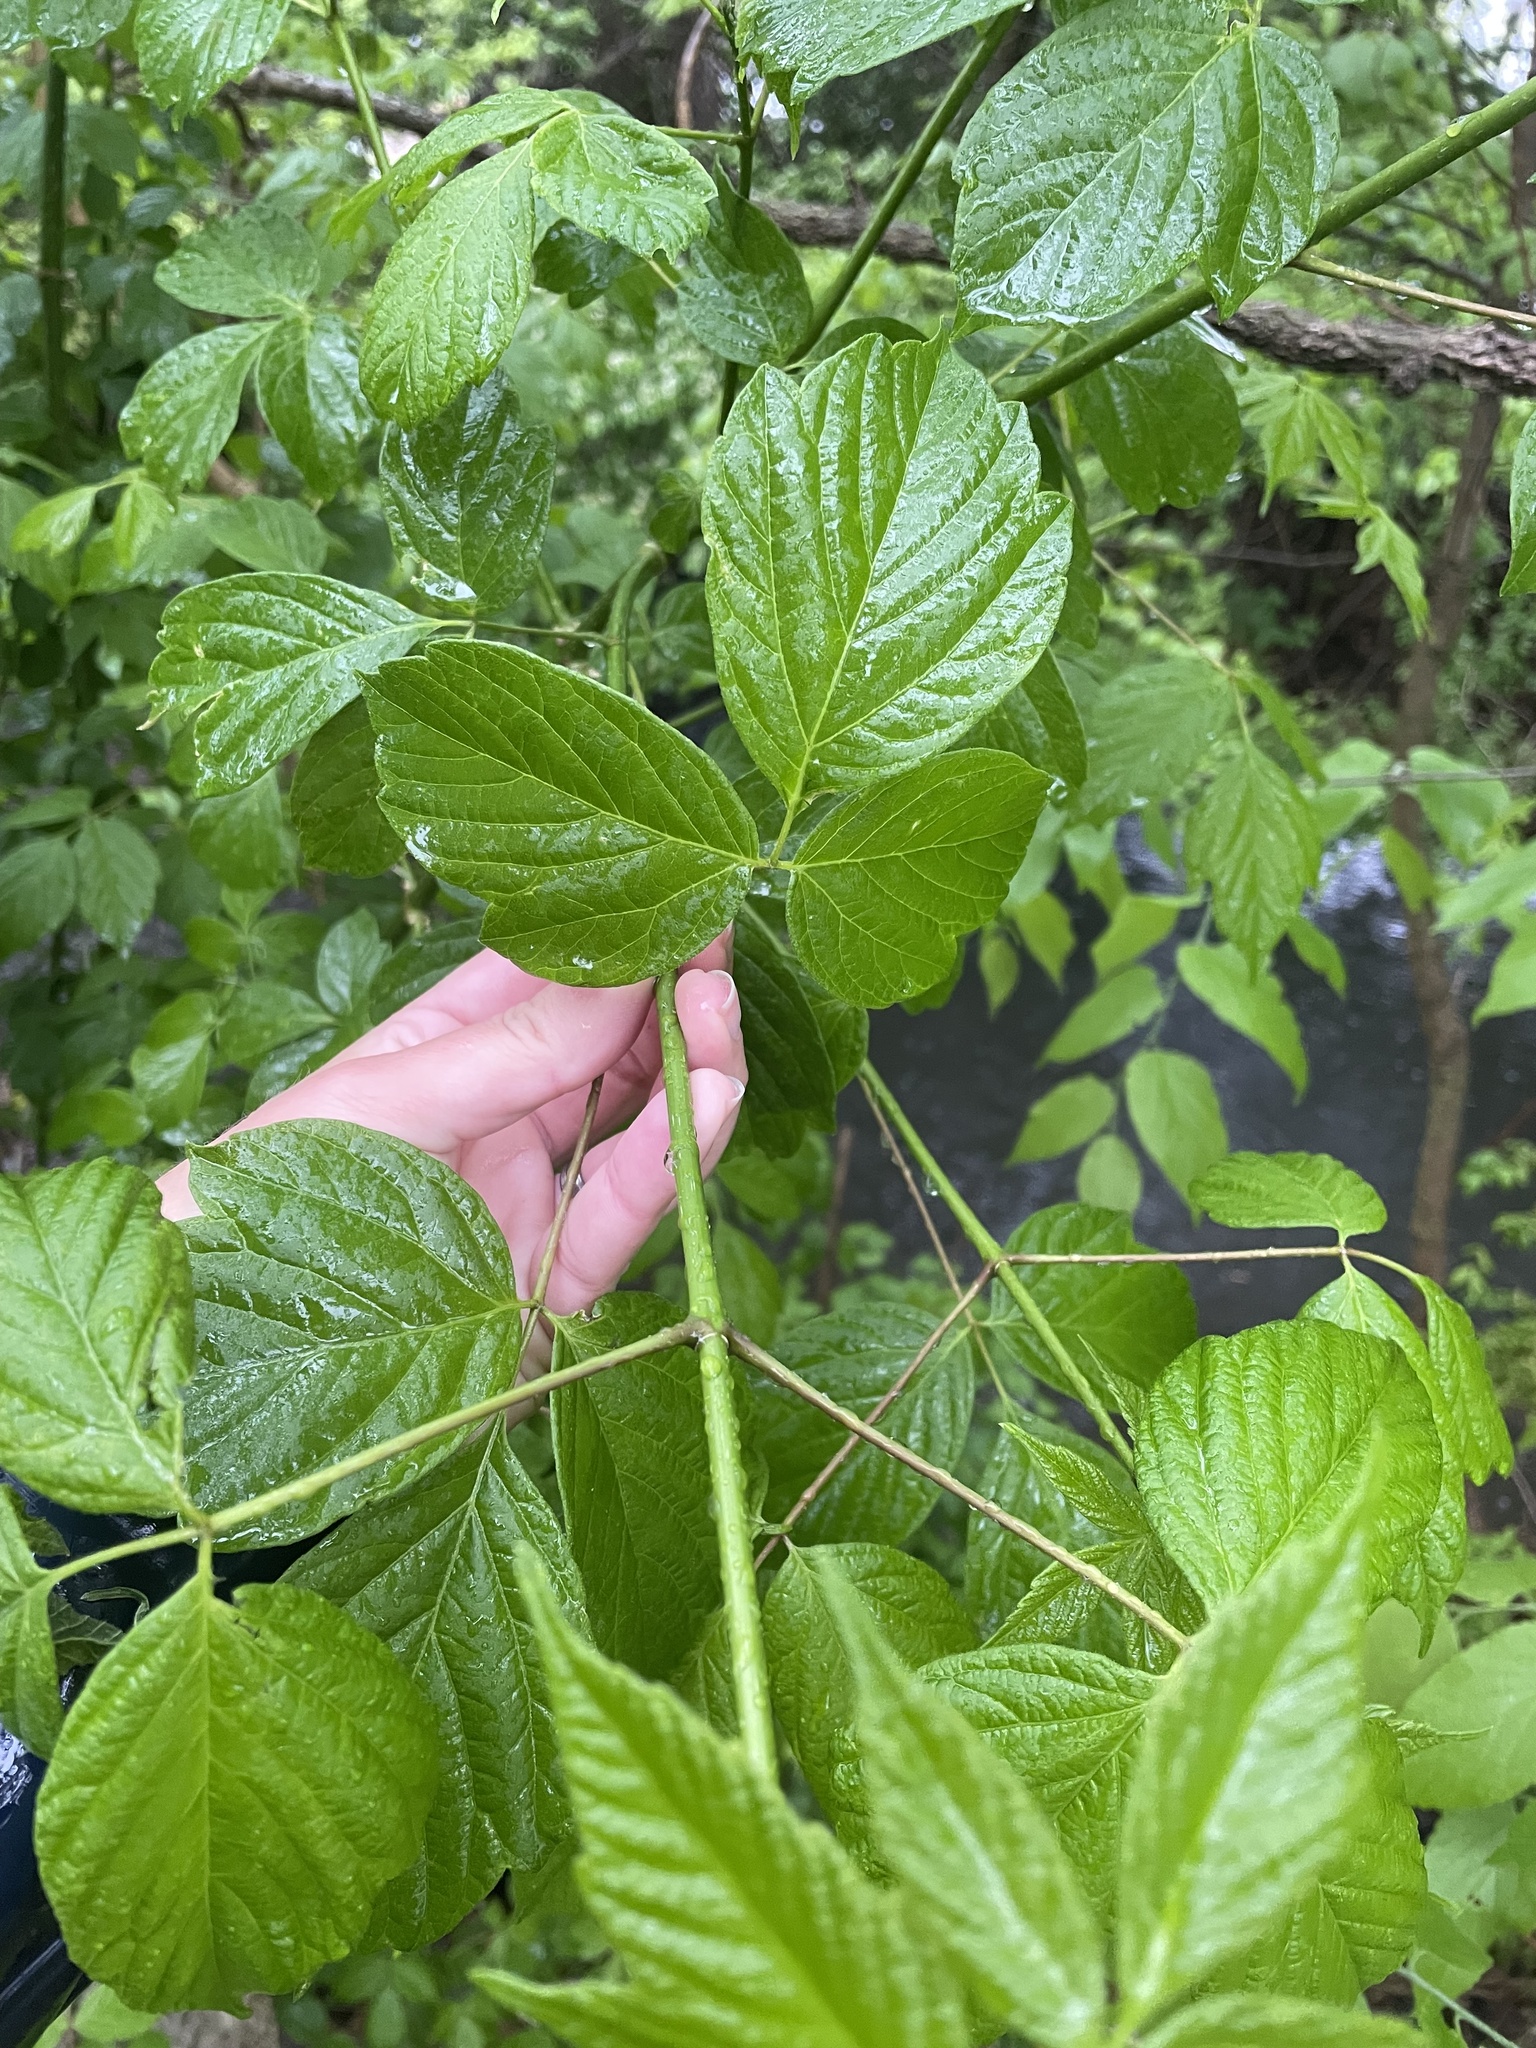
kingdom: Plantae
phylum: Tracheophyta
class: Magnoliopsida
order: Sapindales
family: Sapindaceae
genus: Acer
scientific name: Acer negundo
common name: Ashleaf maple
